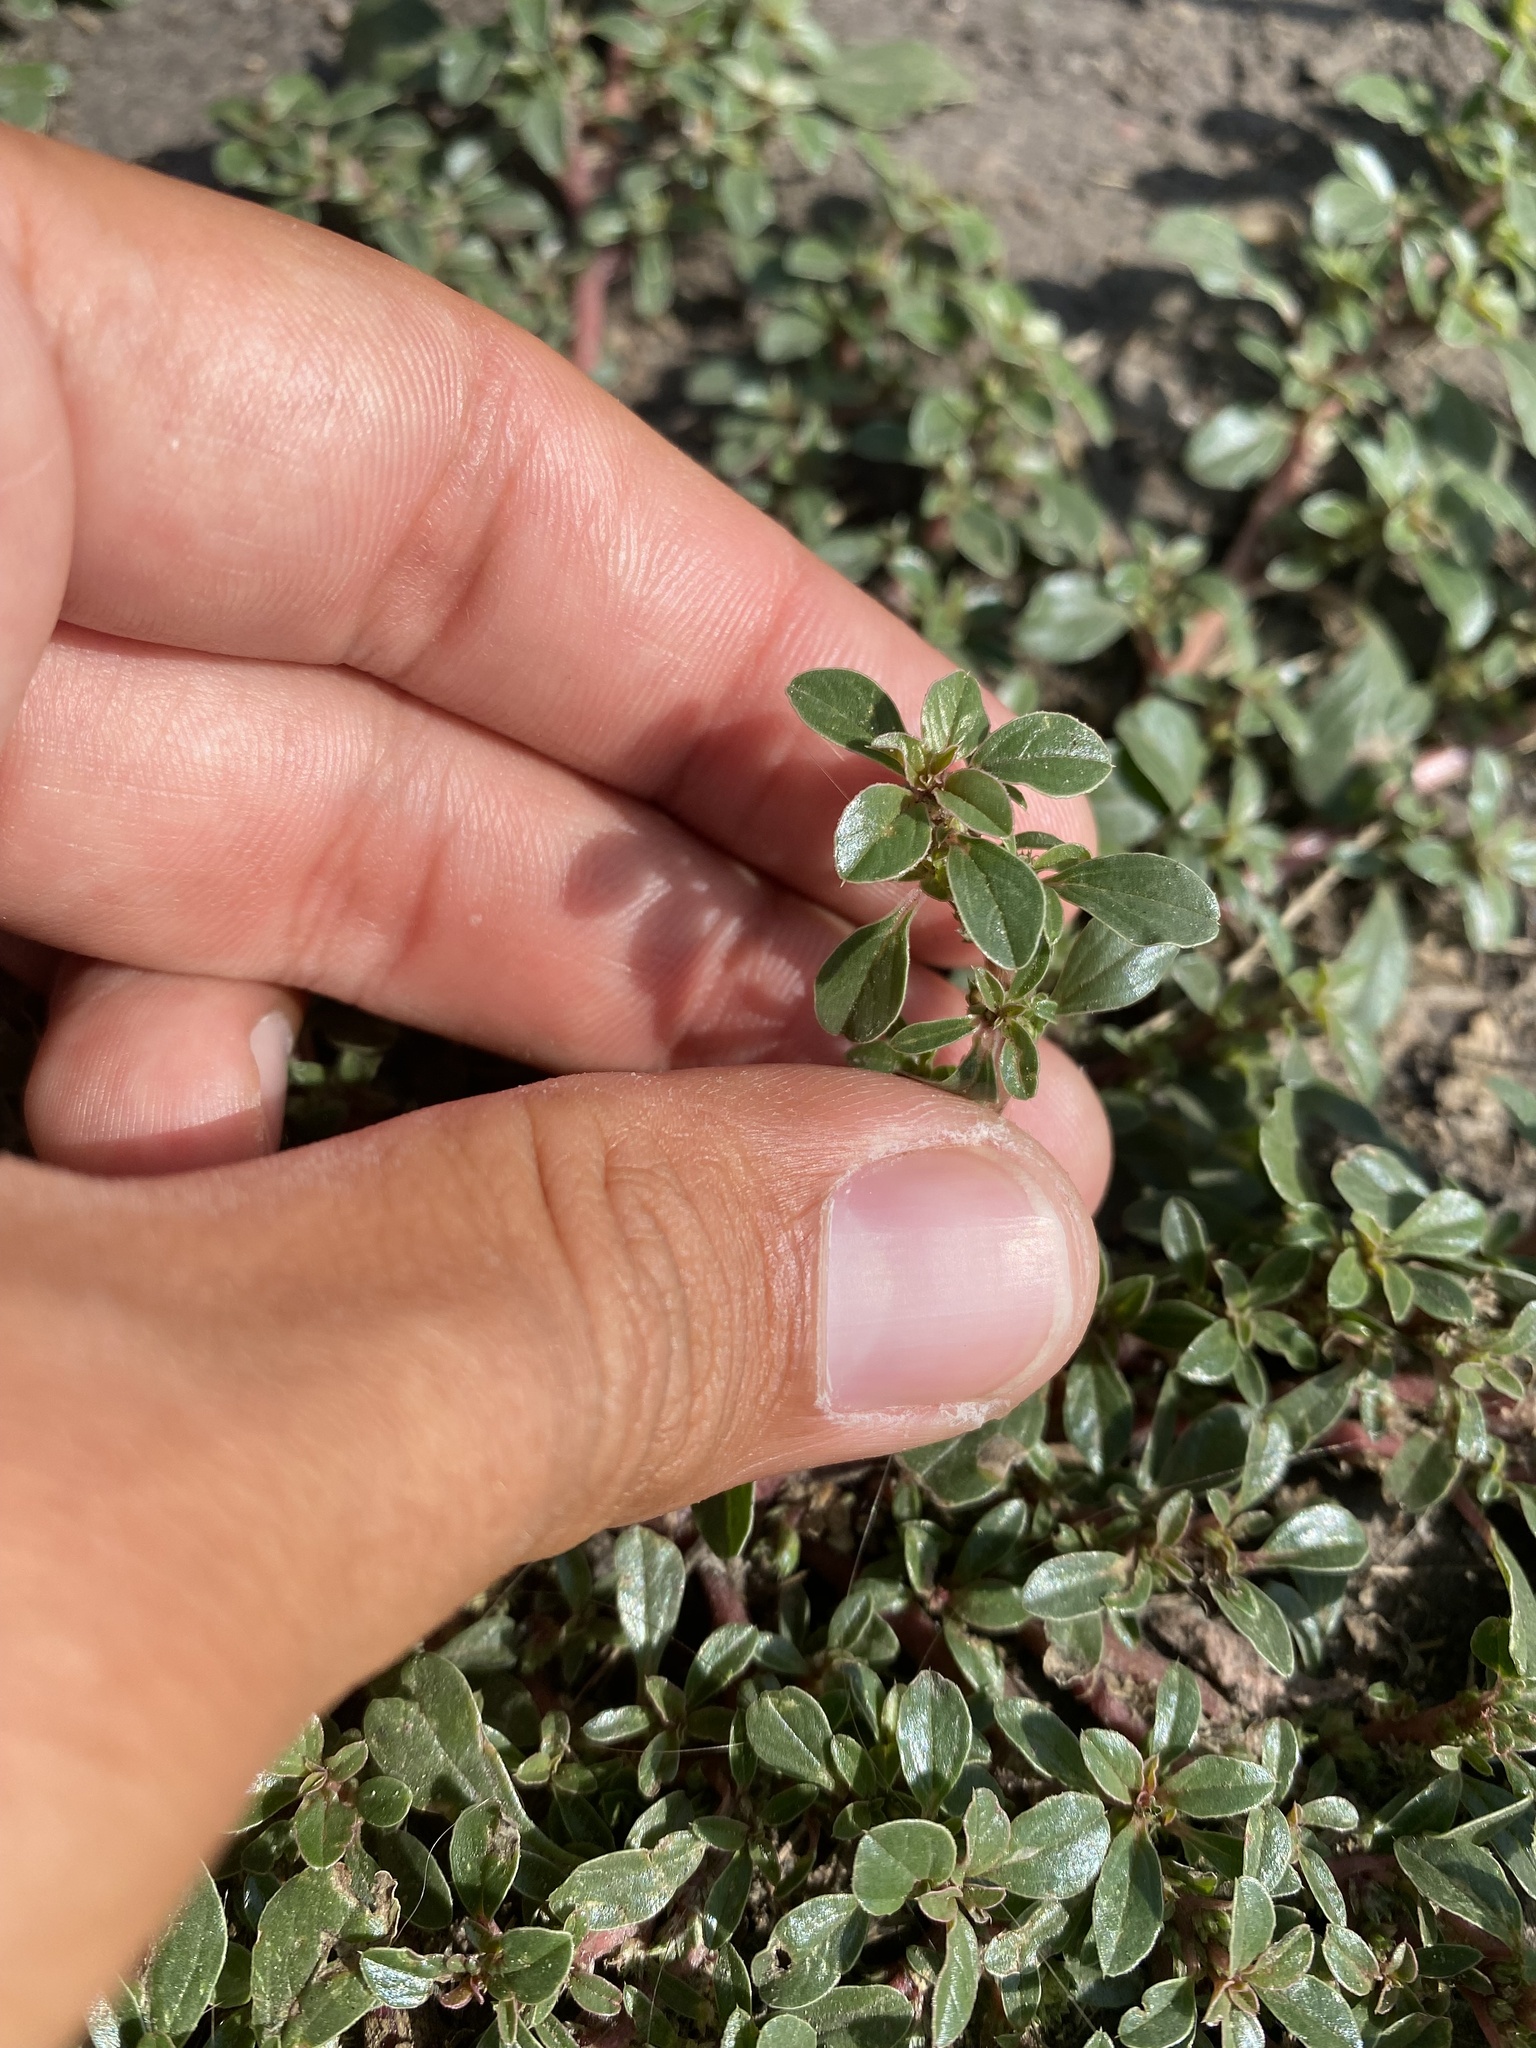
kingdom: Plantae
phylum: Tracheophyta
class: Magnoliopsida
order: Caryophyllales
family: Amaranthaceae
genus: Amaranthus
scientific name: Amaranthus blitoides
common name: Prostrate pigweed
